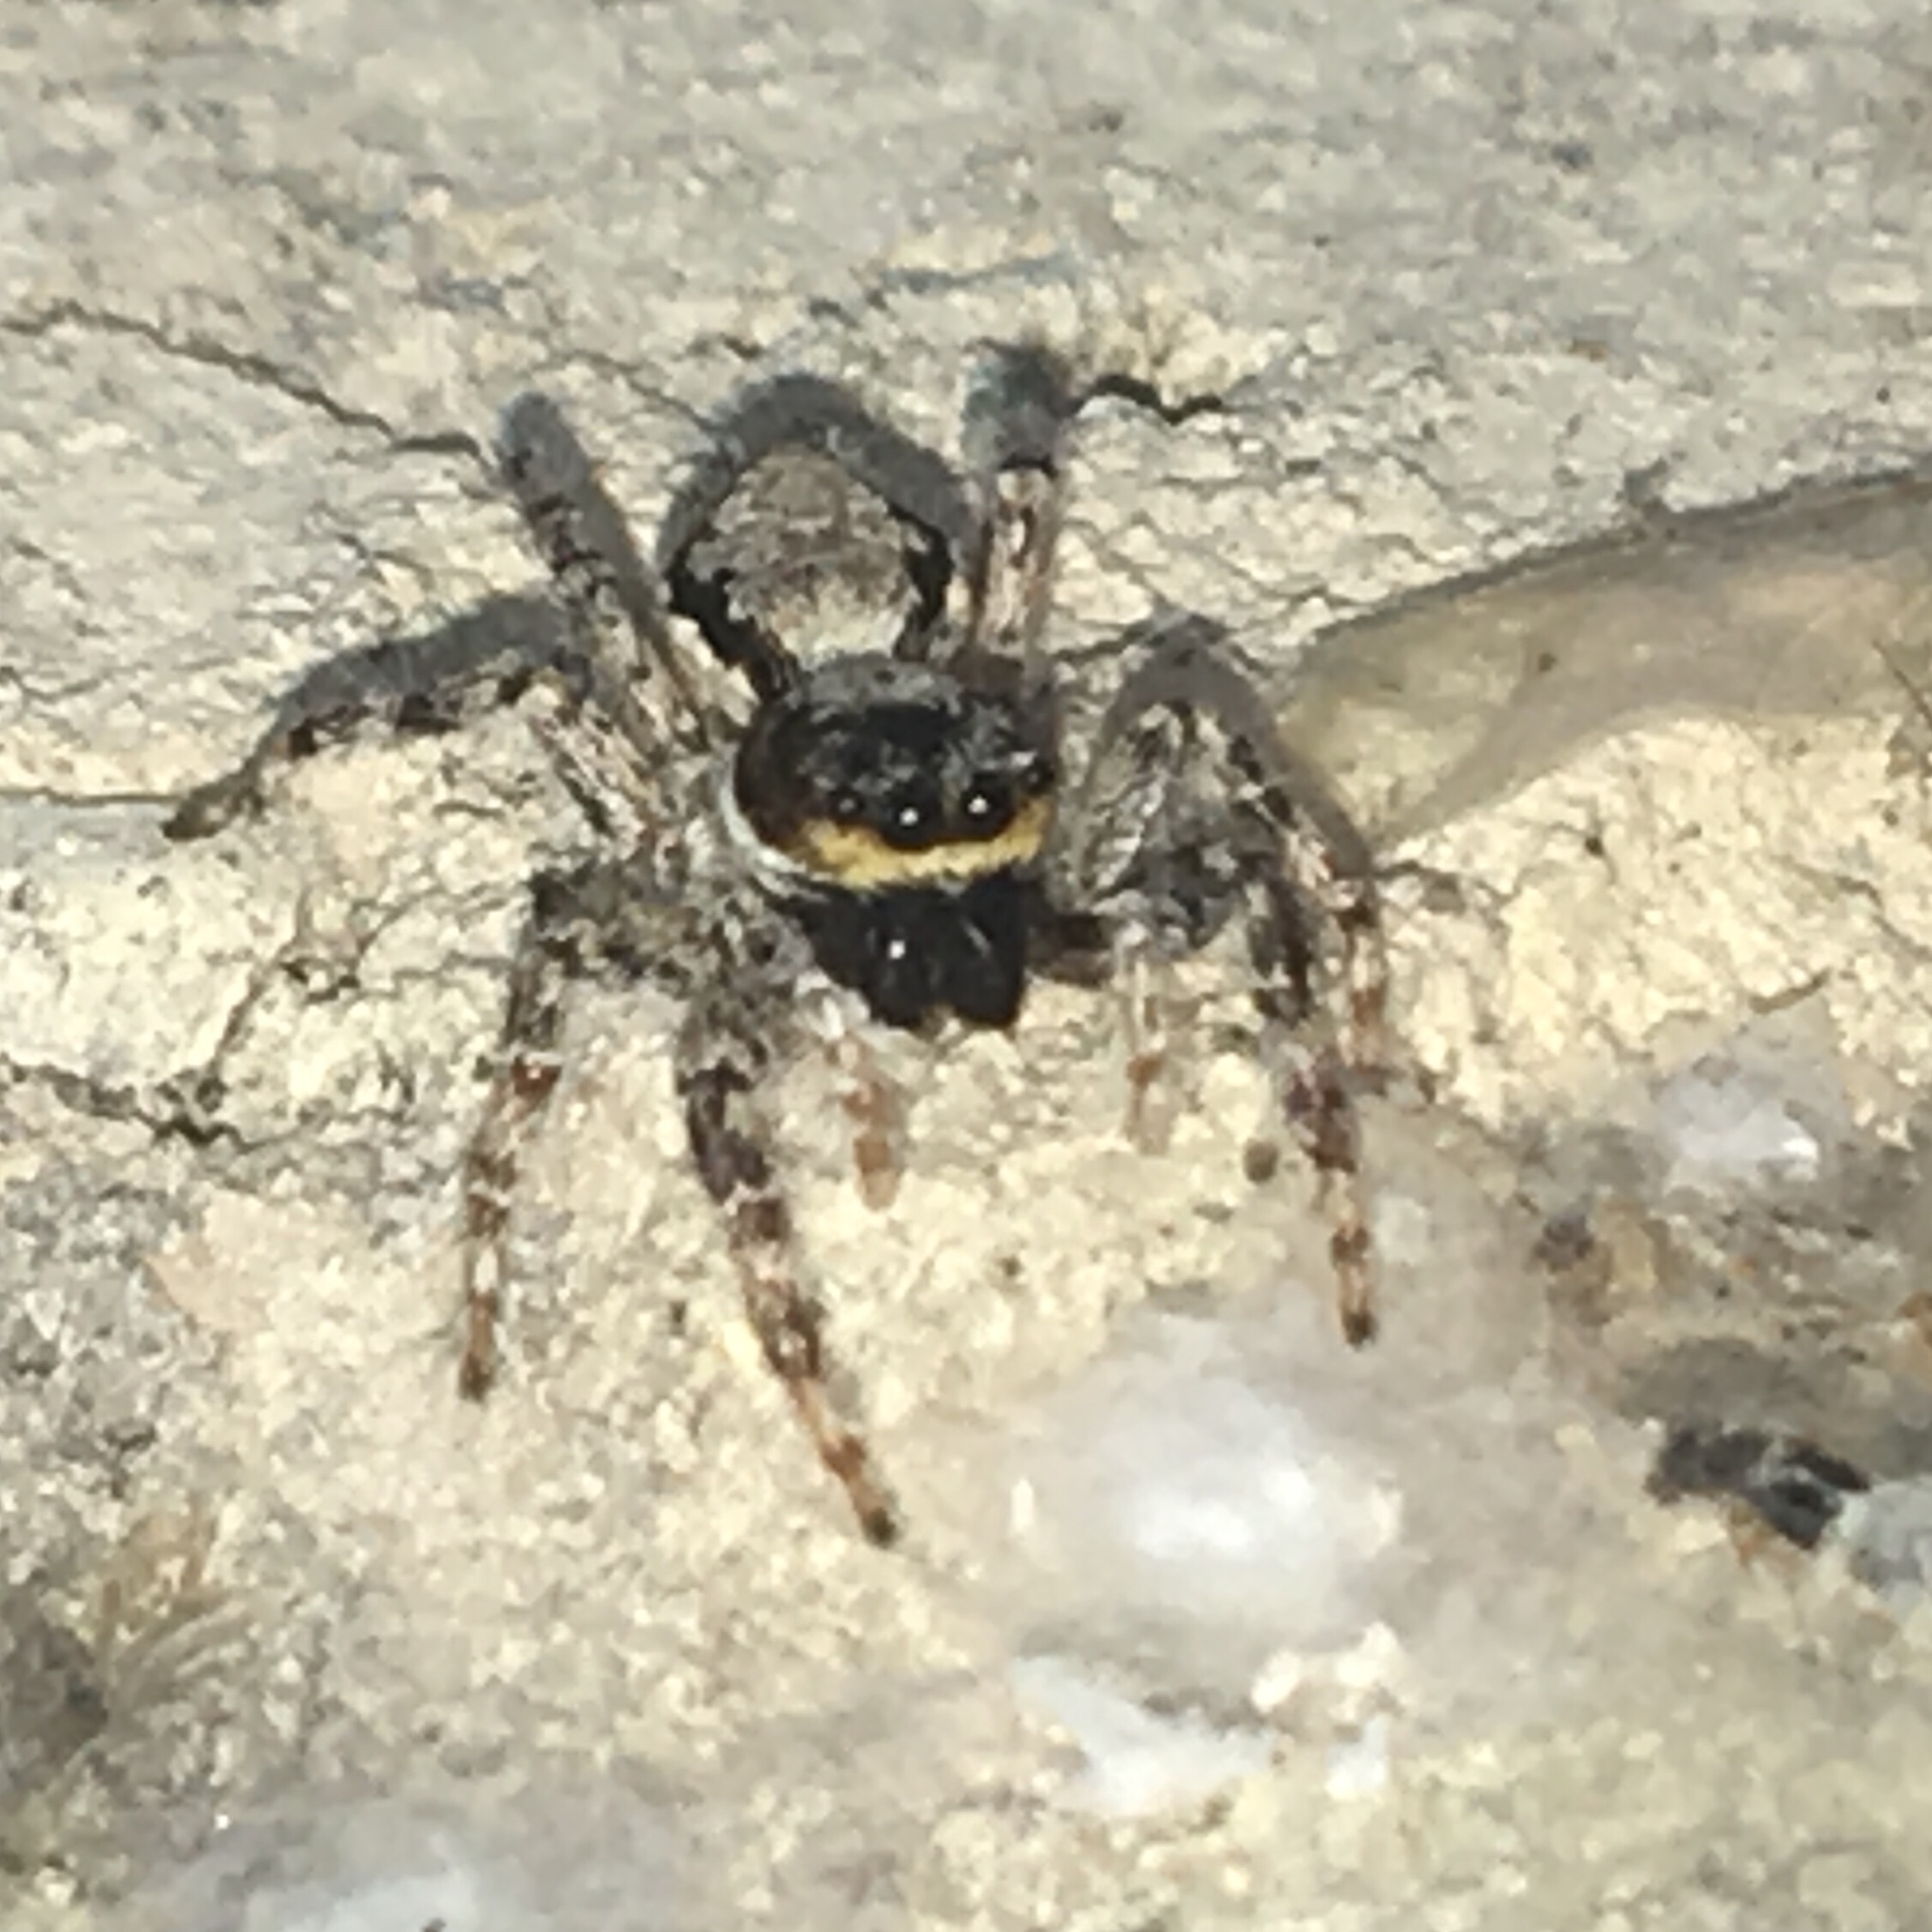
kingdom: Animalia
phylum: Arthropoda
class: Arachnida
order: Araneae
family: Salticidae
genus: Menemerus
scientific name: Menemerus bivittatus
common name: Gray wall jumper
